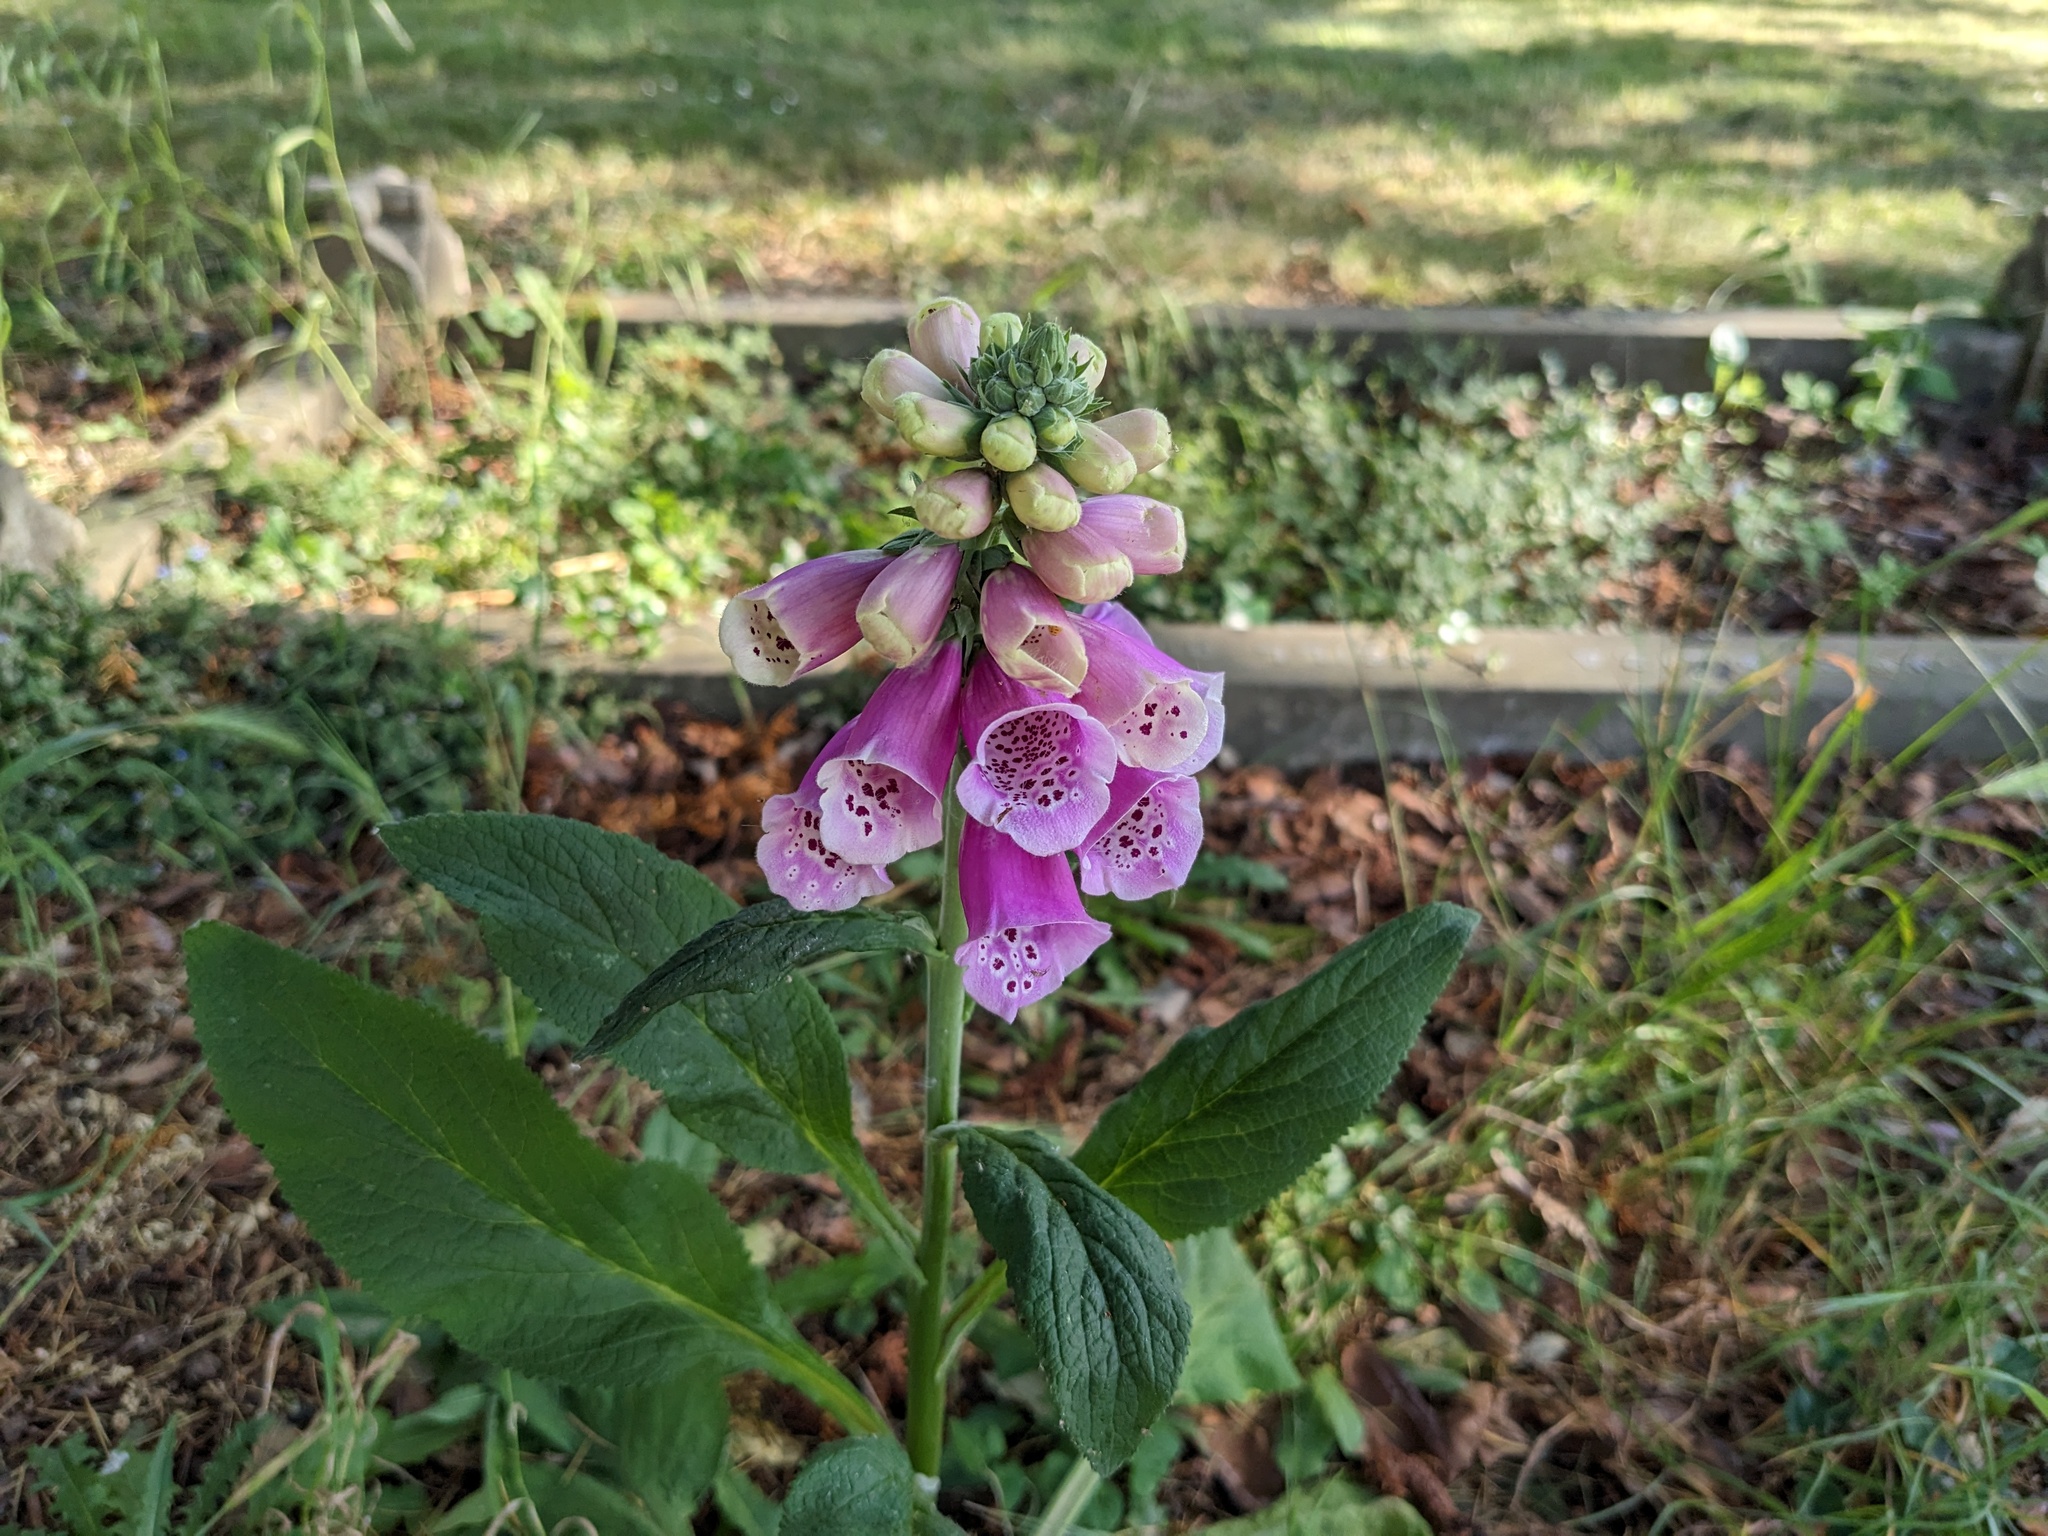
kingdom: Plantae
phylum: Tracheophyta
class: Magnoliopsida
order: Lamiales
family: Plantaginaceae
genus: Digitalis
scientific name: Digitalis purpurea
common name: Foxglove
